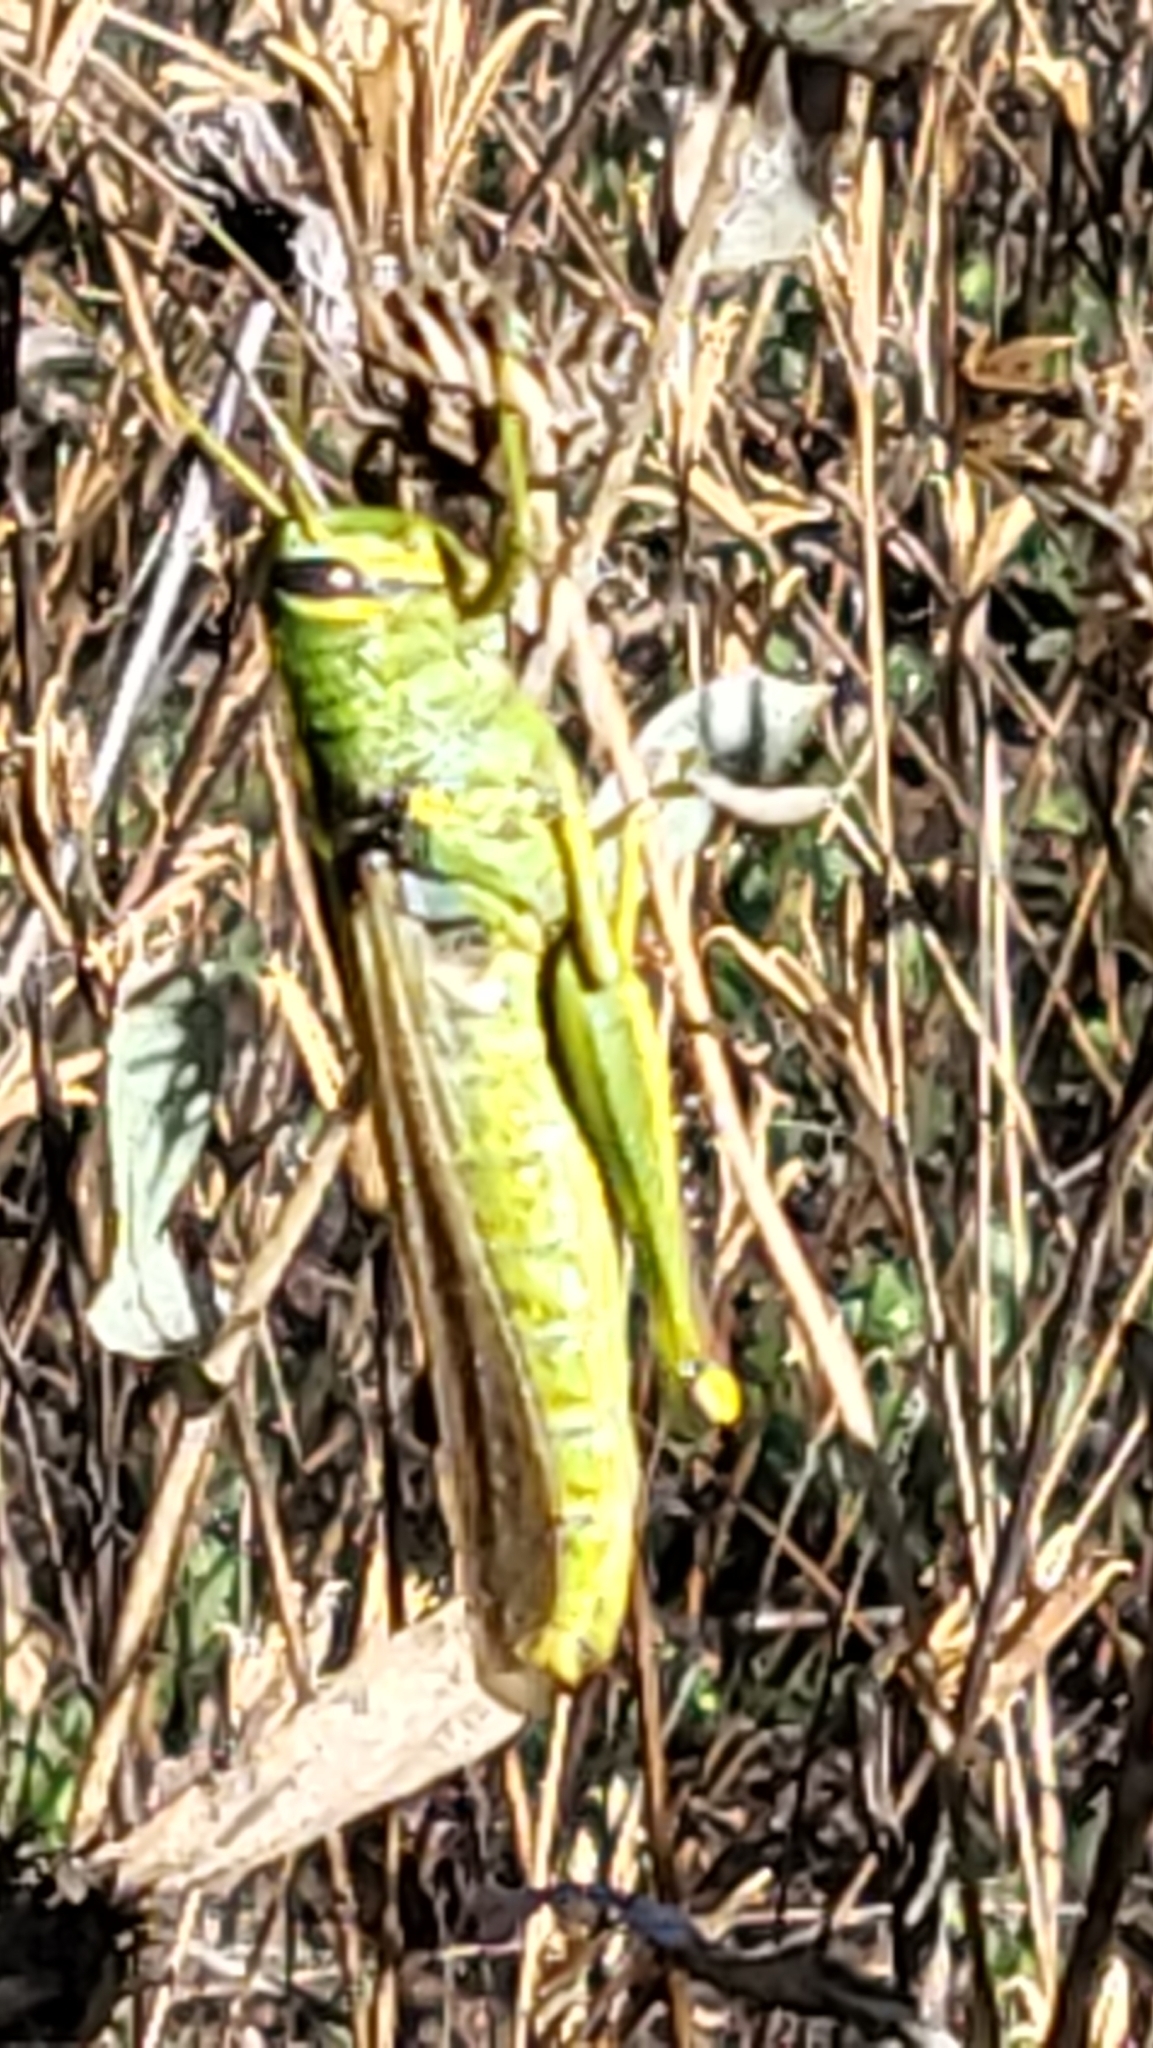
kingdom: Animalia
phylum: Arthropoda
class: Insecta
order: Orthoptera
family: Acrididae
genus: Schistocerca
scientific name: Schistocerca lineata
